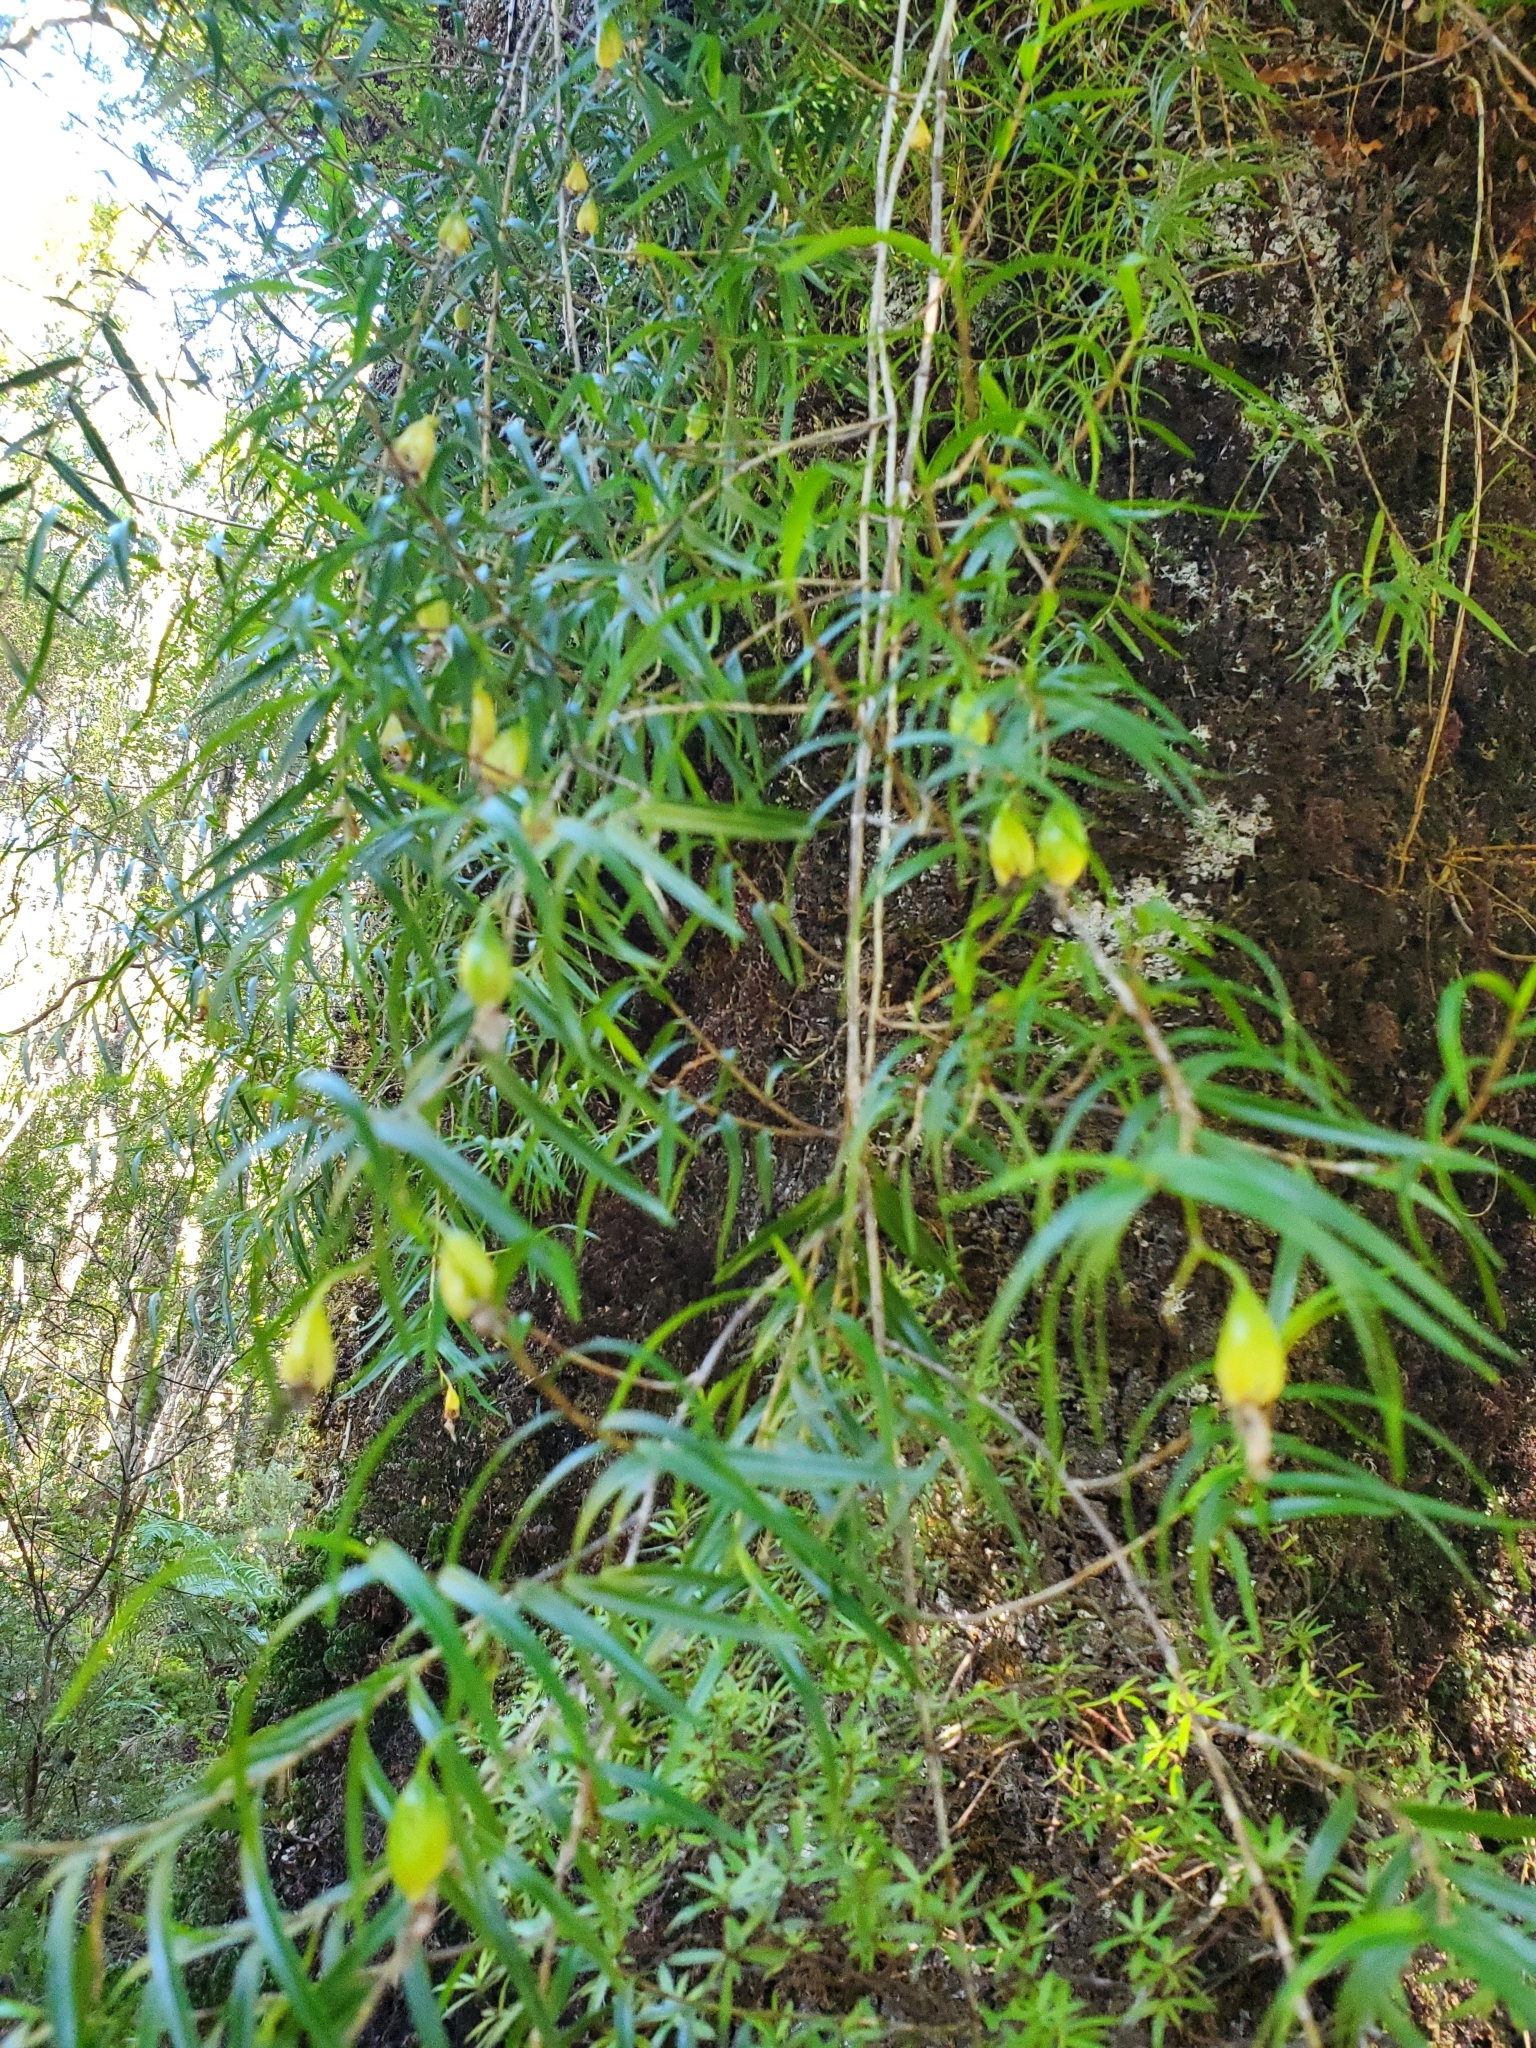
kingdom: Plantae
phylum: Tracheophyta
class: Liliopsida
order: Asparagales
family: Orchidaceae
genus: Dendrobium
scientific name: Dendrobium cunninghamii
